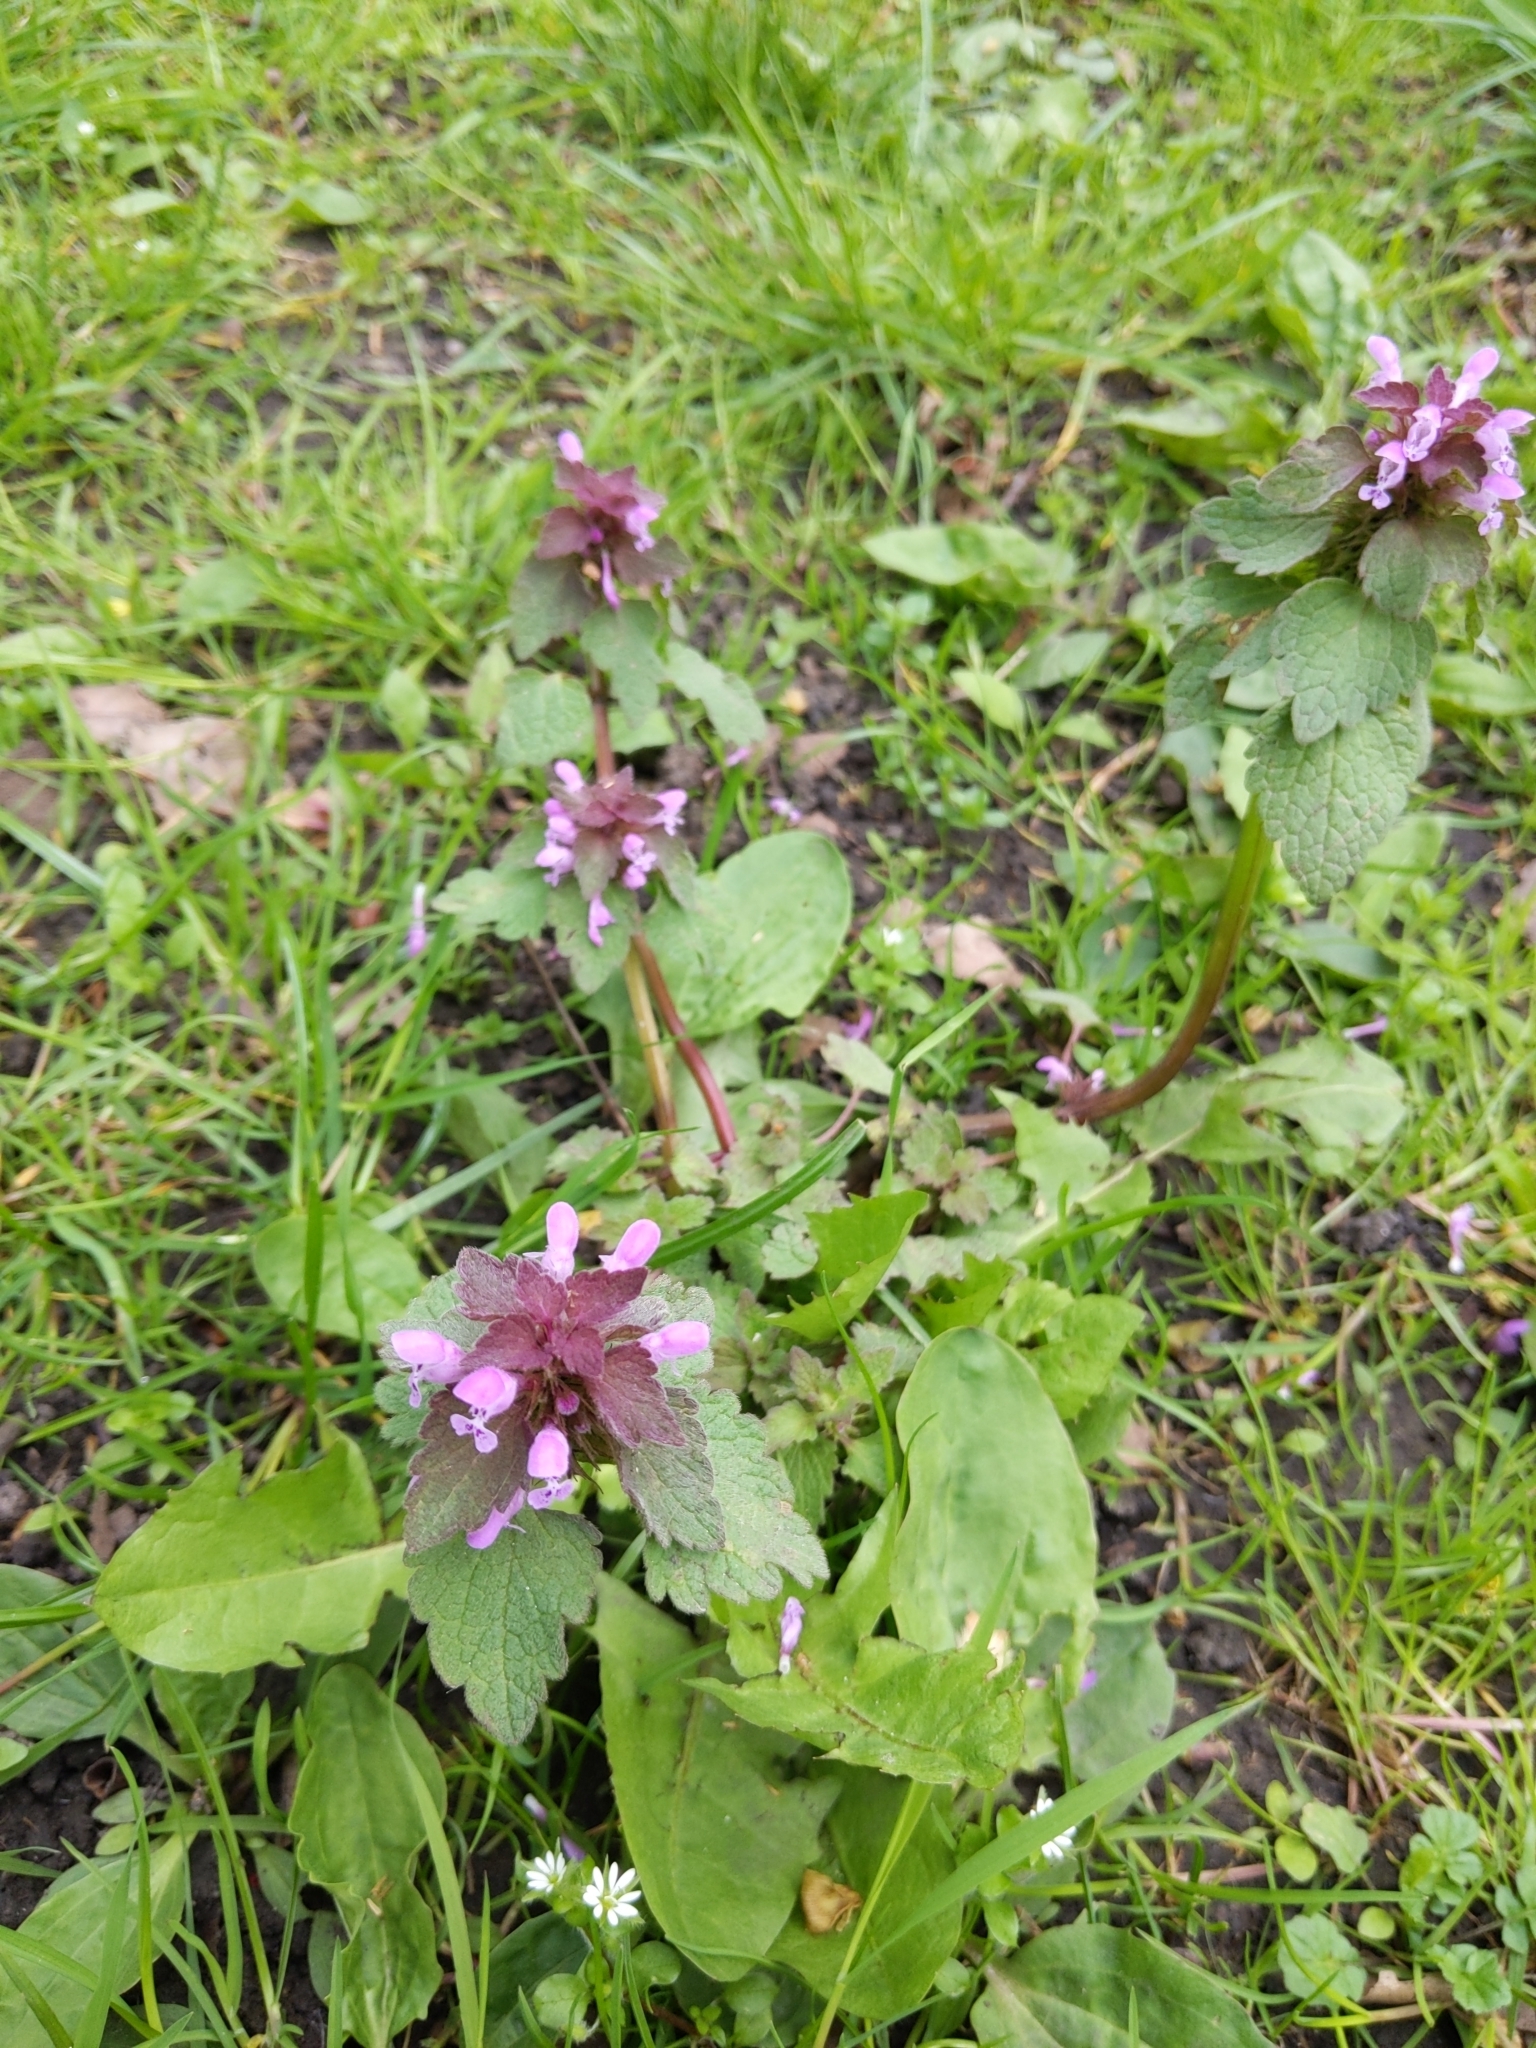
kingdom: Plantae
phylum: Tracheophyta
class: Magnoliopsida
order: Lamiales
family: Lamiaceae
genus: Lamium
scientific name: Lamium purpureum
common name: Red dead-nettle
